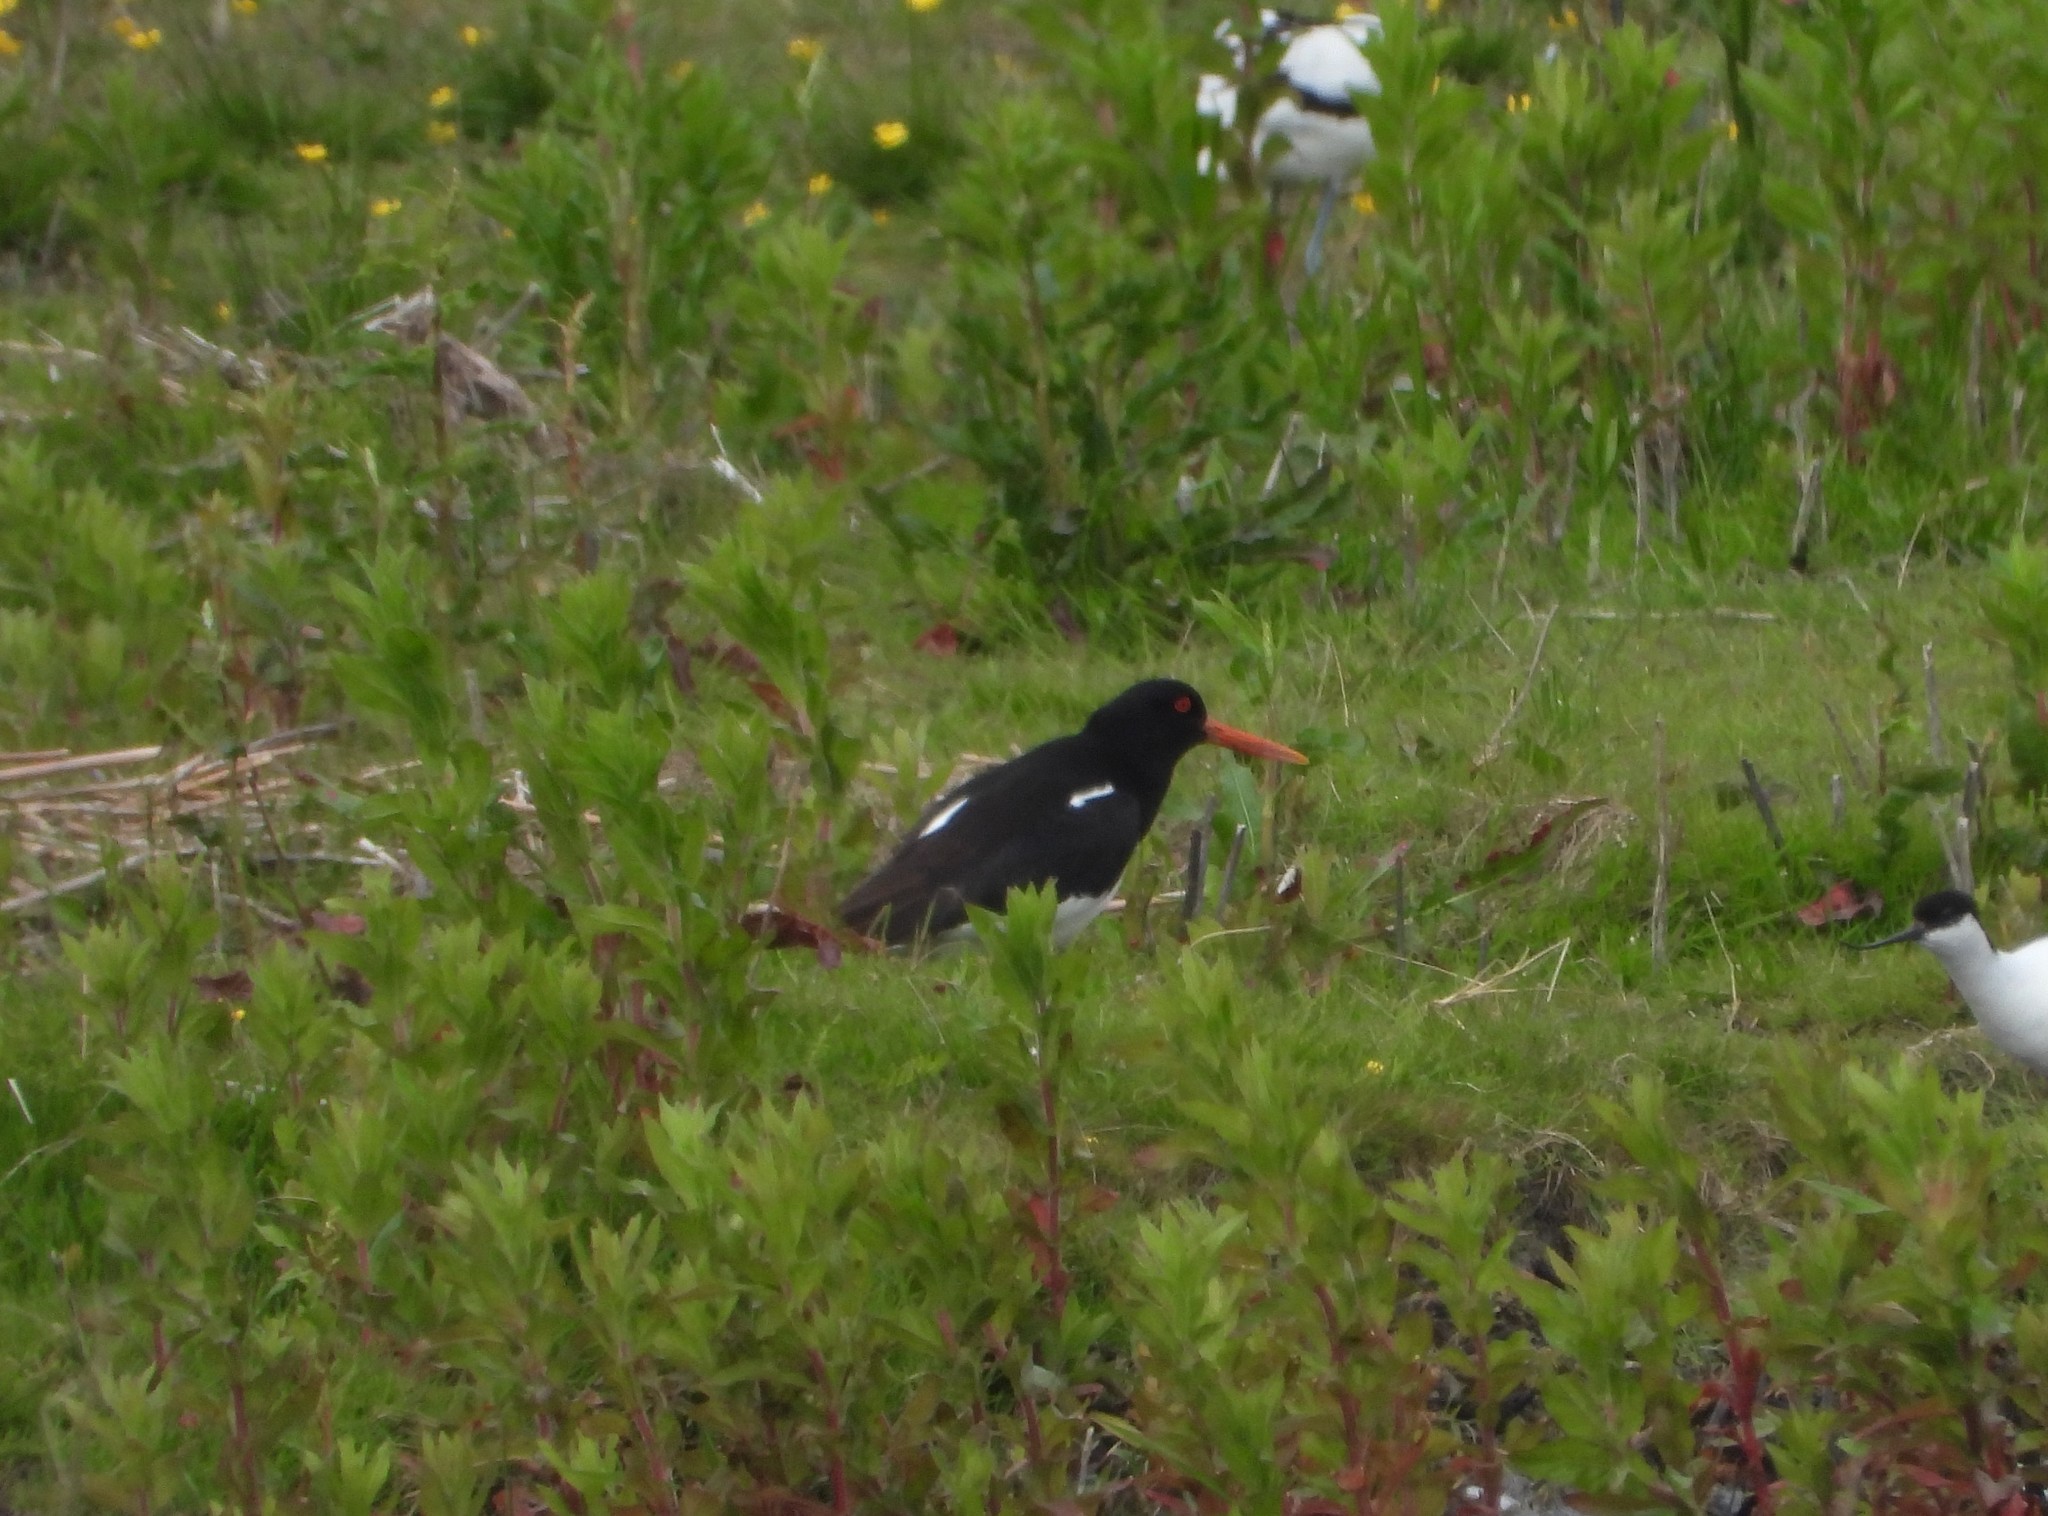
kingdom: Animalia
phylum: Chordata
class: Aves
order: Charadriiformes
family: Haematopodidae
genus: Haematopus
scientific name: Haematopus ostralegus
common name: Eurasian oystercatcher
